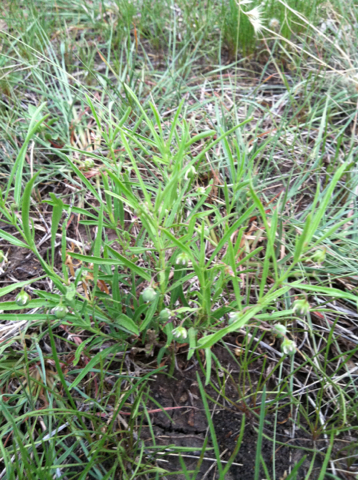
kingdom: Plantae
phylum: Tracheophyta
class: Magnoliopsida
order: Malpighiales
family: Violaceae
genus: Pombalia
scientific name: Pombalia verticillata
